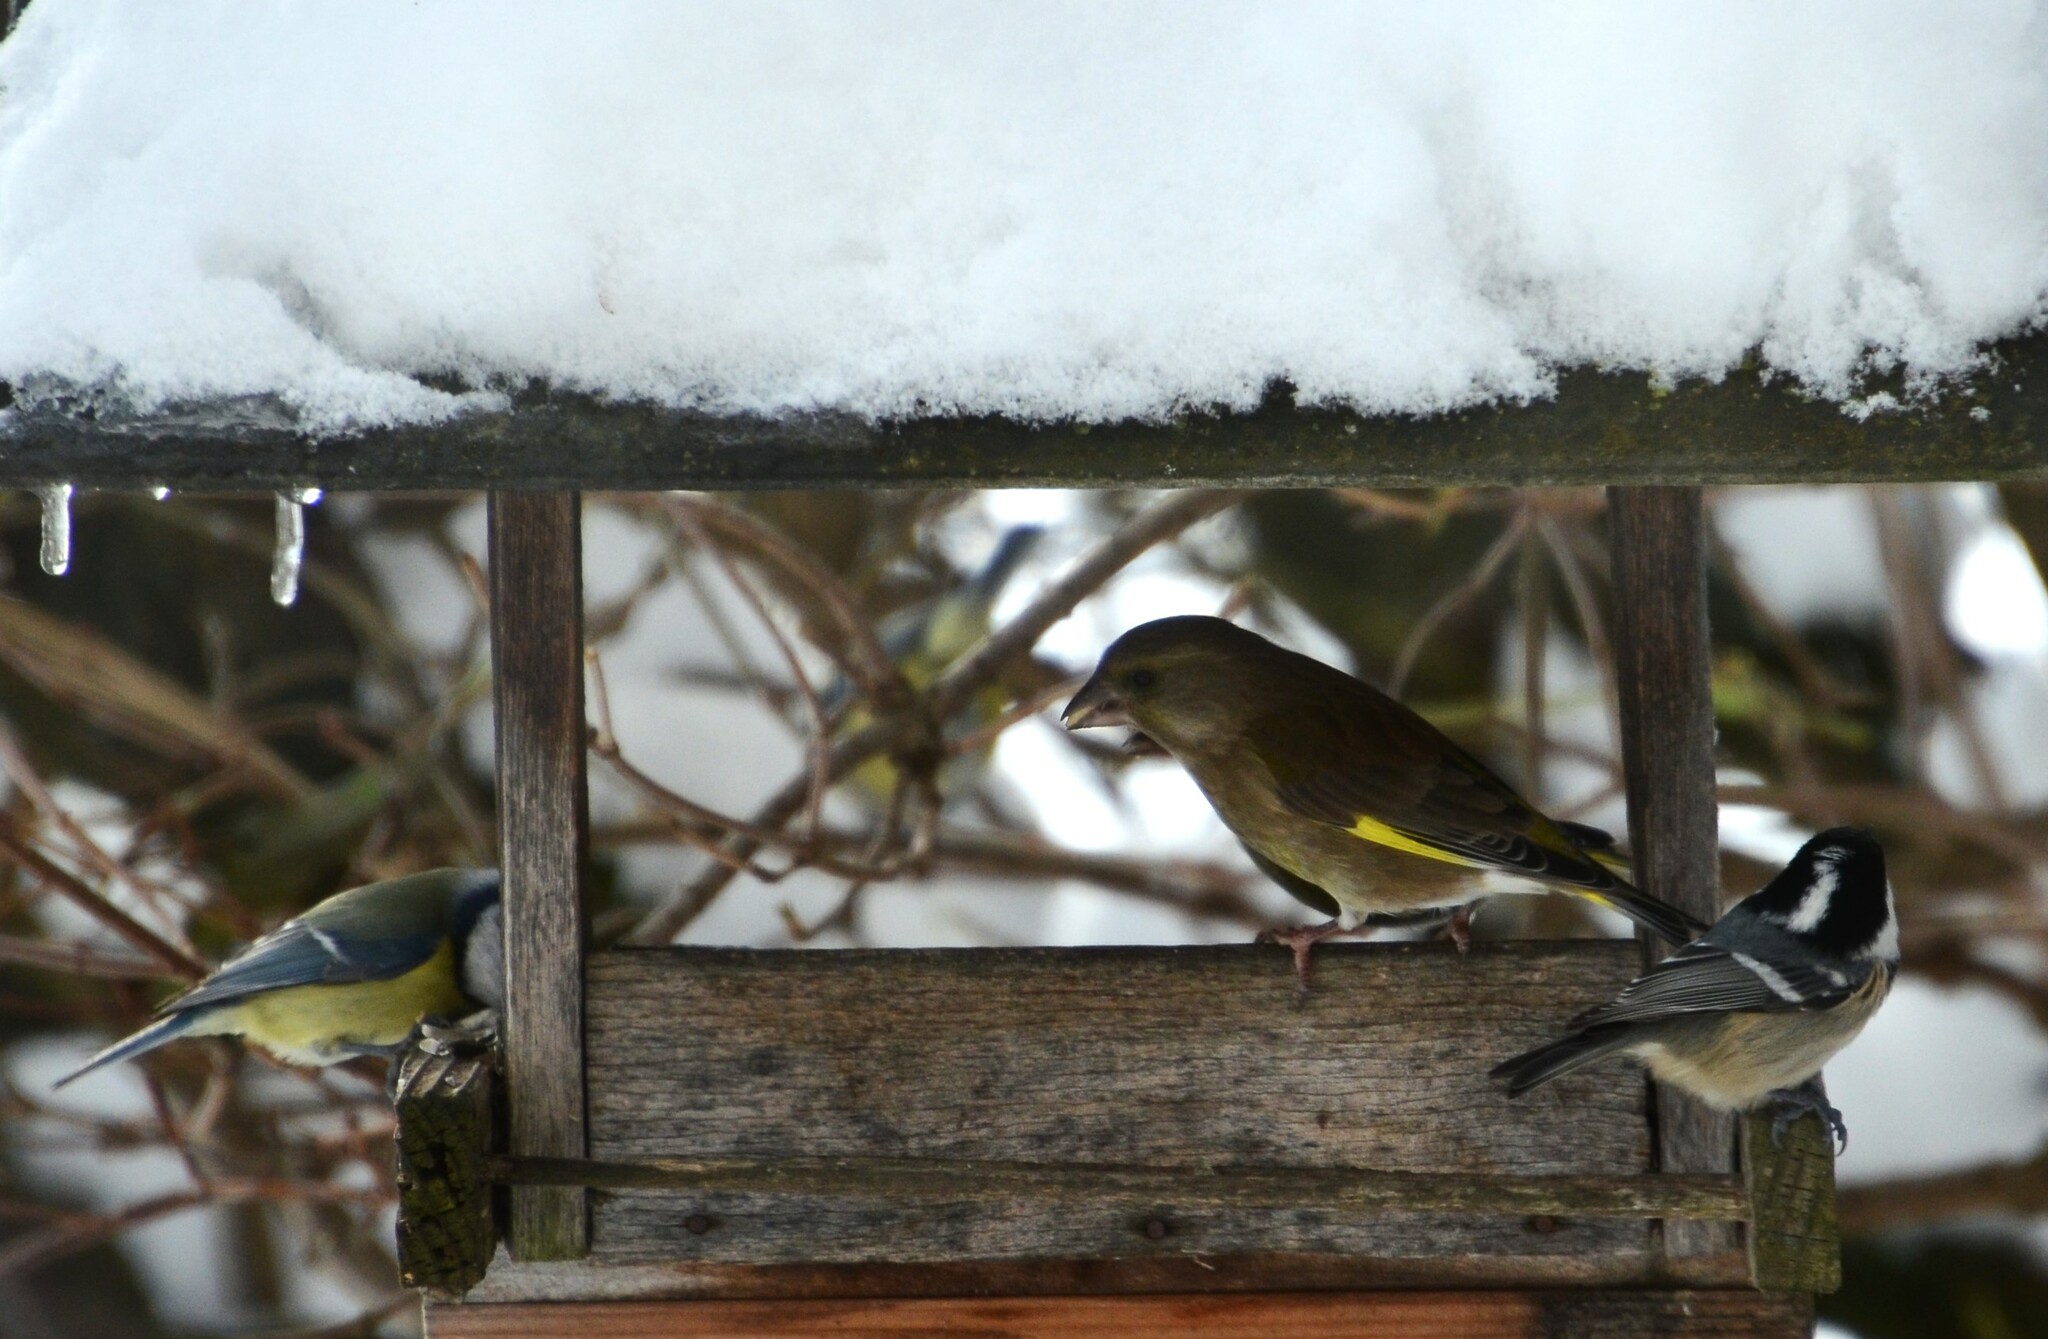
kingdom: Plantae
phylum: Tracheophyta
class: Liliopsida
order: Poales
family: Poaceae
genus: Chloris
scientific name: Chloris chloris
